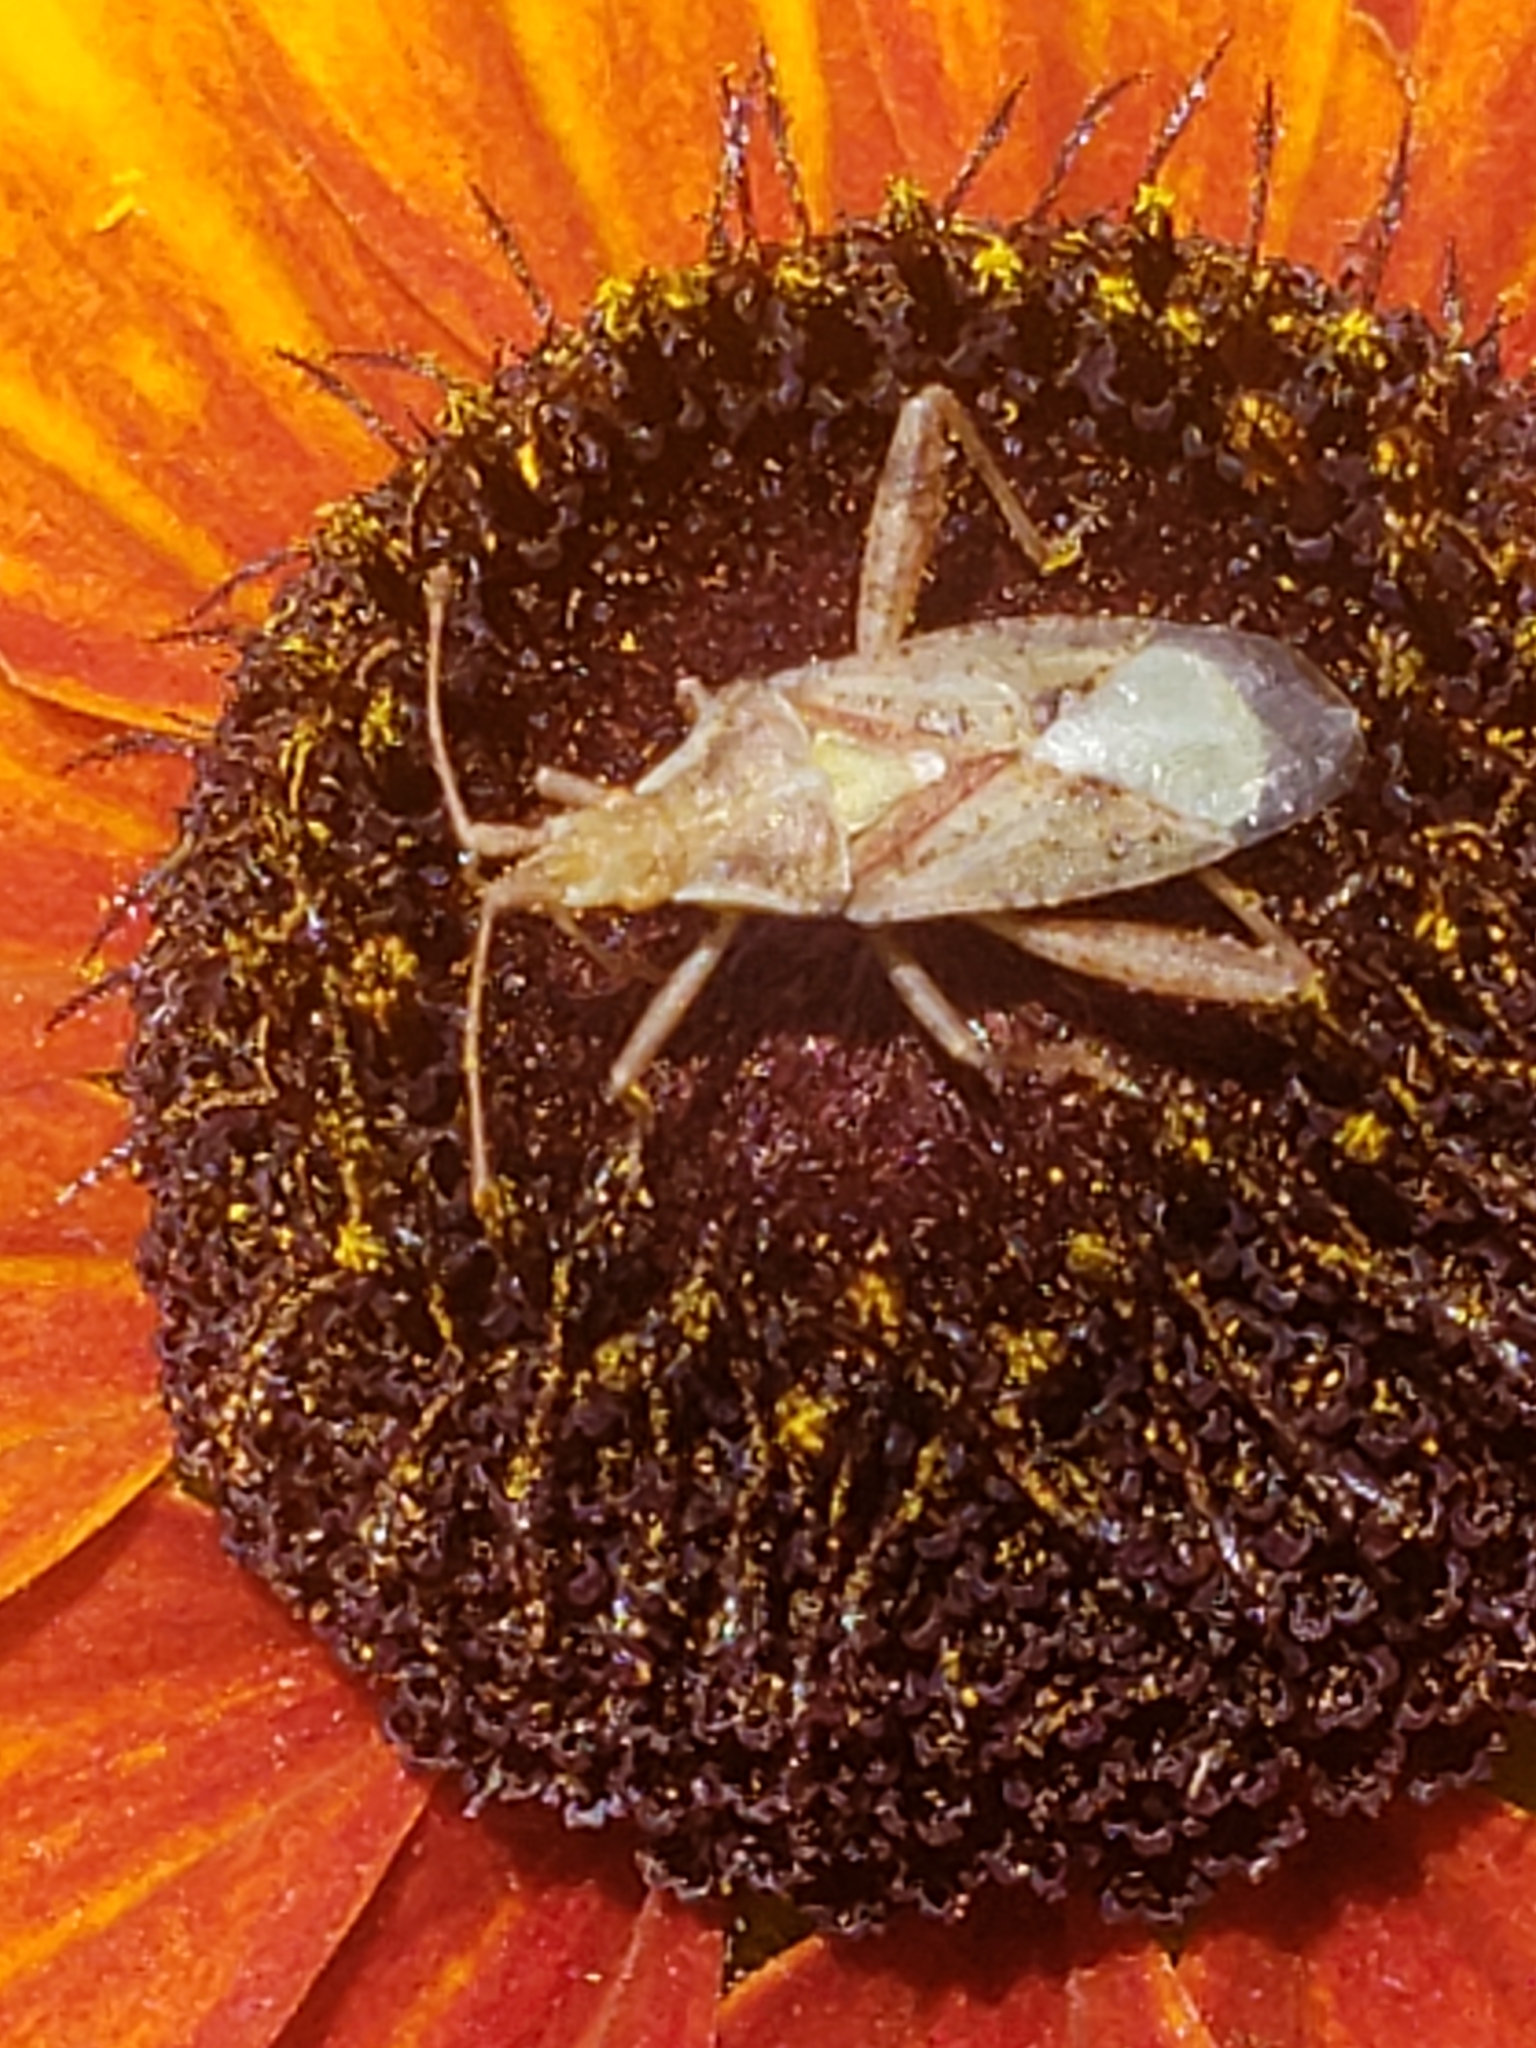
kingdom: Animalia
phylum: Arthropoda
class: Insecta
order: Hemiptera
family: Rhopalidae
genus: Harmostes
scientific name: Harmostes reflexulus
